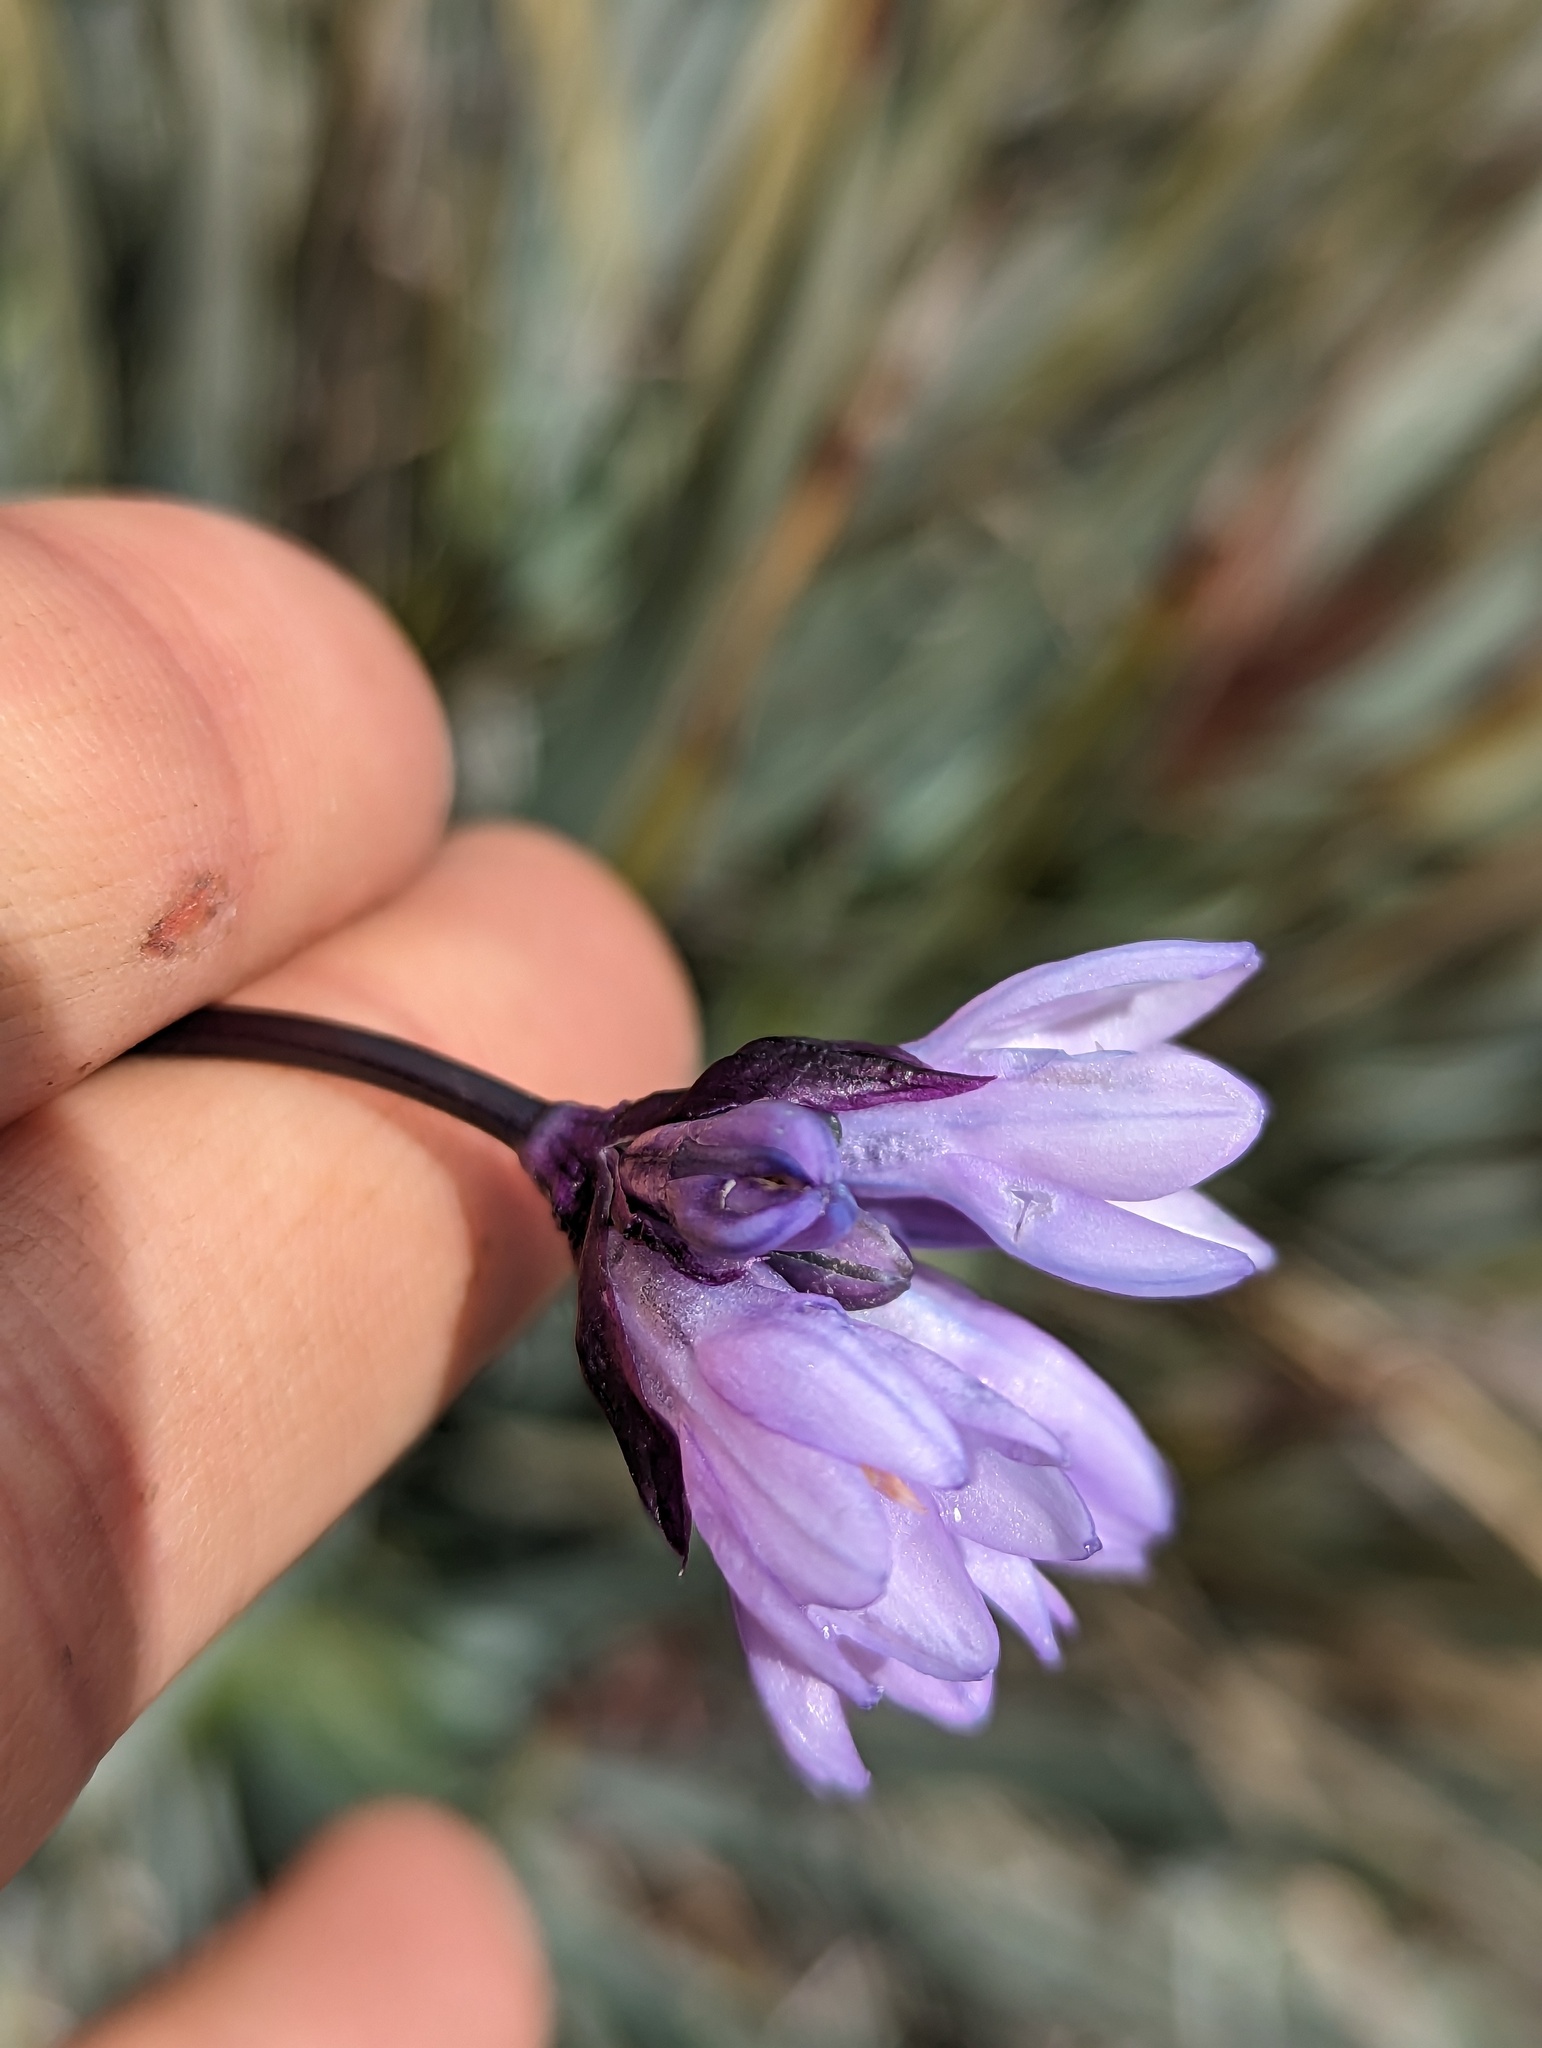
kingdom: Plantae
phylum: Tracheophyta
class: Liliopsida
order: Asparagales
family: Asparagaceae
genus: Dipterostemon
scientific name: Dipterostemon capitatus
